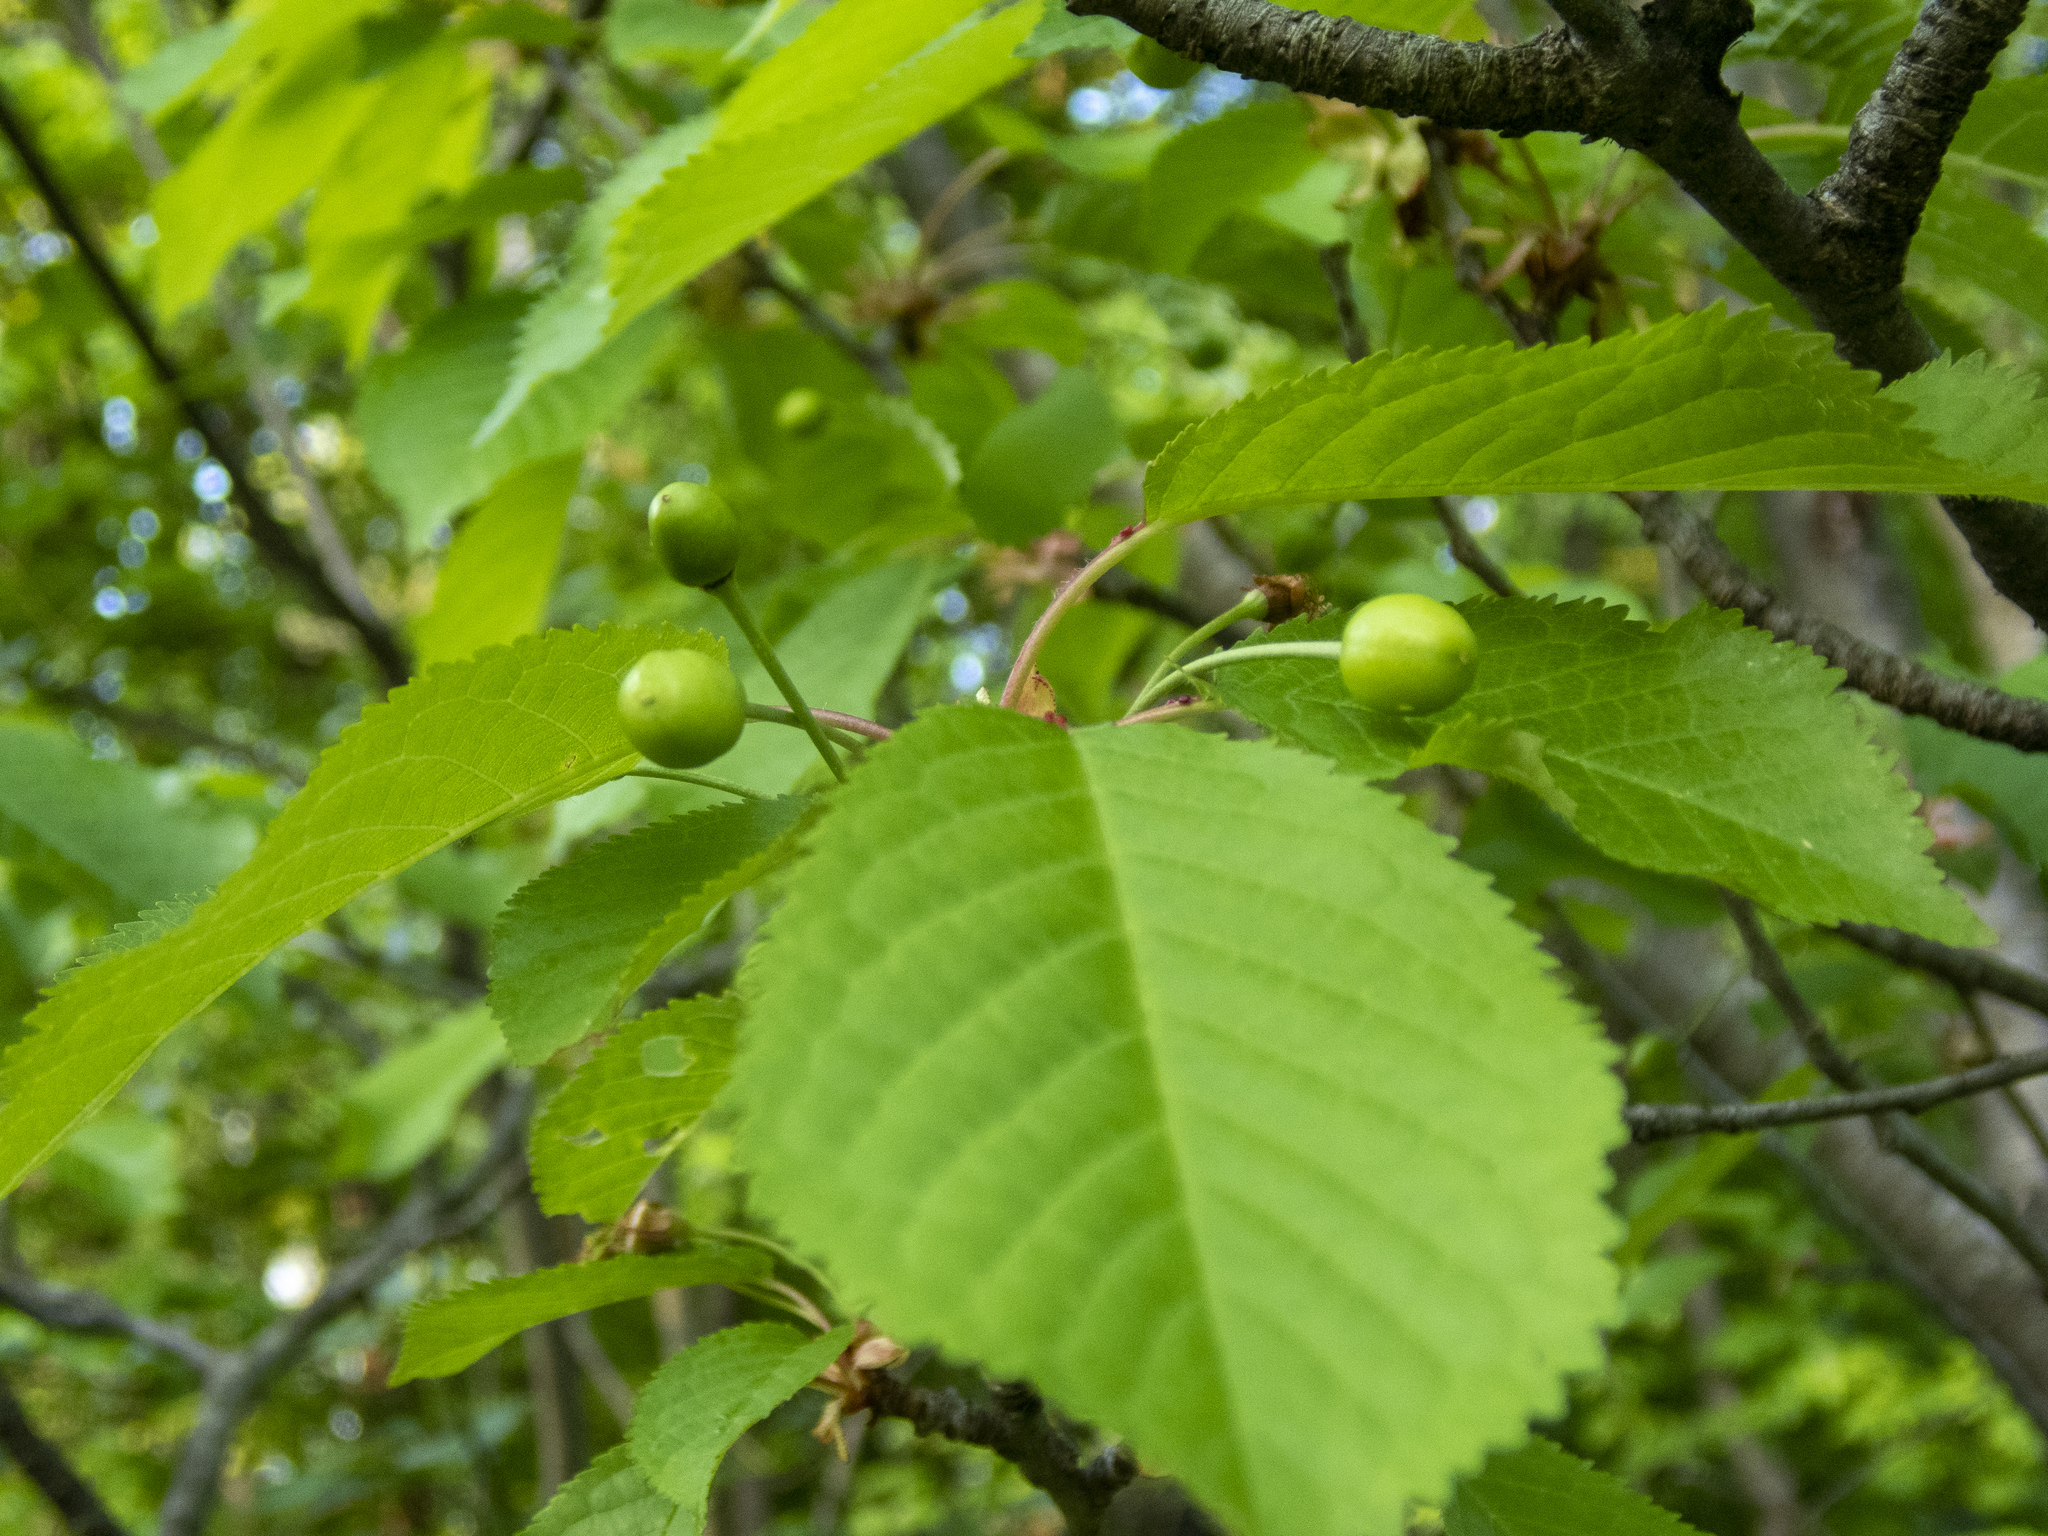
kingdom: Plantae
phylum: Tracheophyta
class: Magnoliopsida
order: Rosales
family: Rosaceae
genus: Prunus
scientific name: Prunus avium
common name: Sweet cherry
